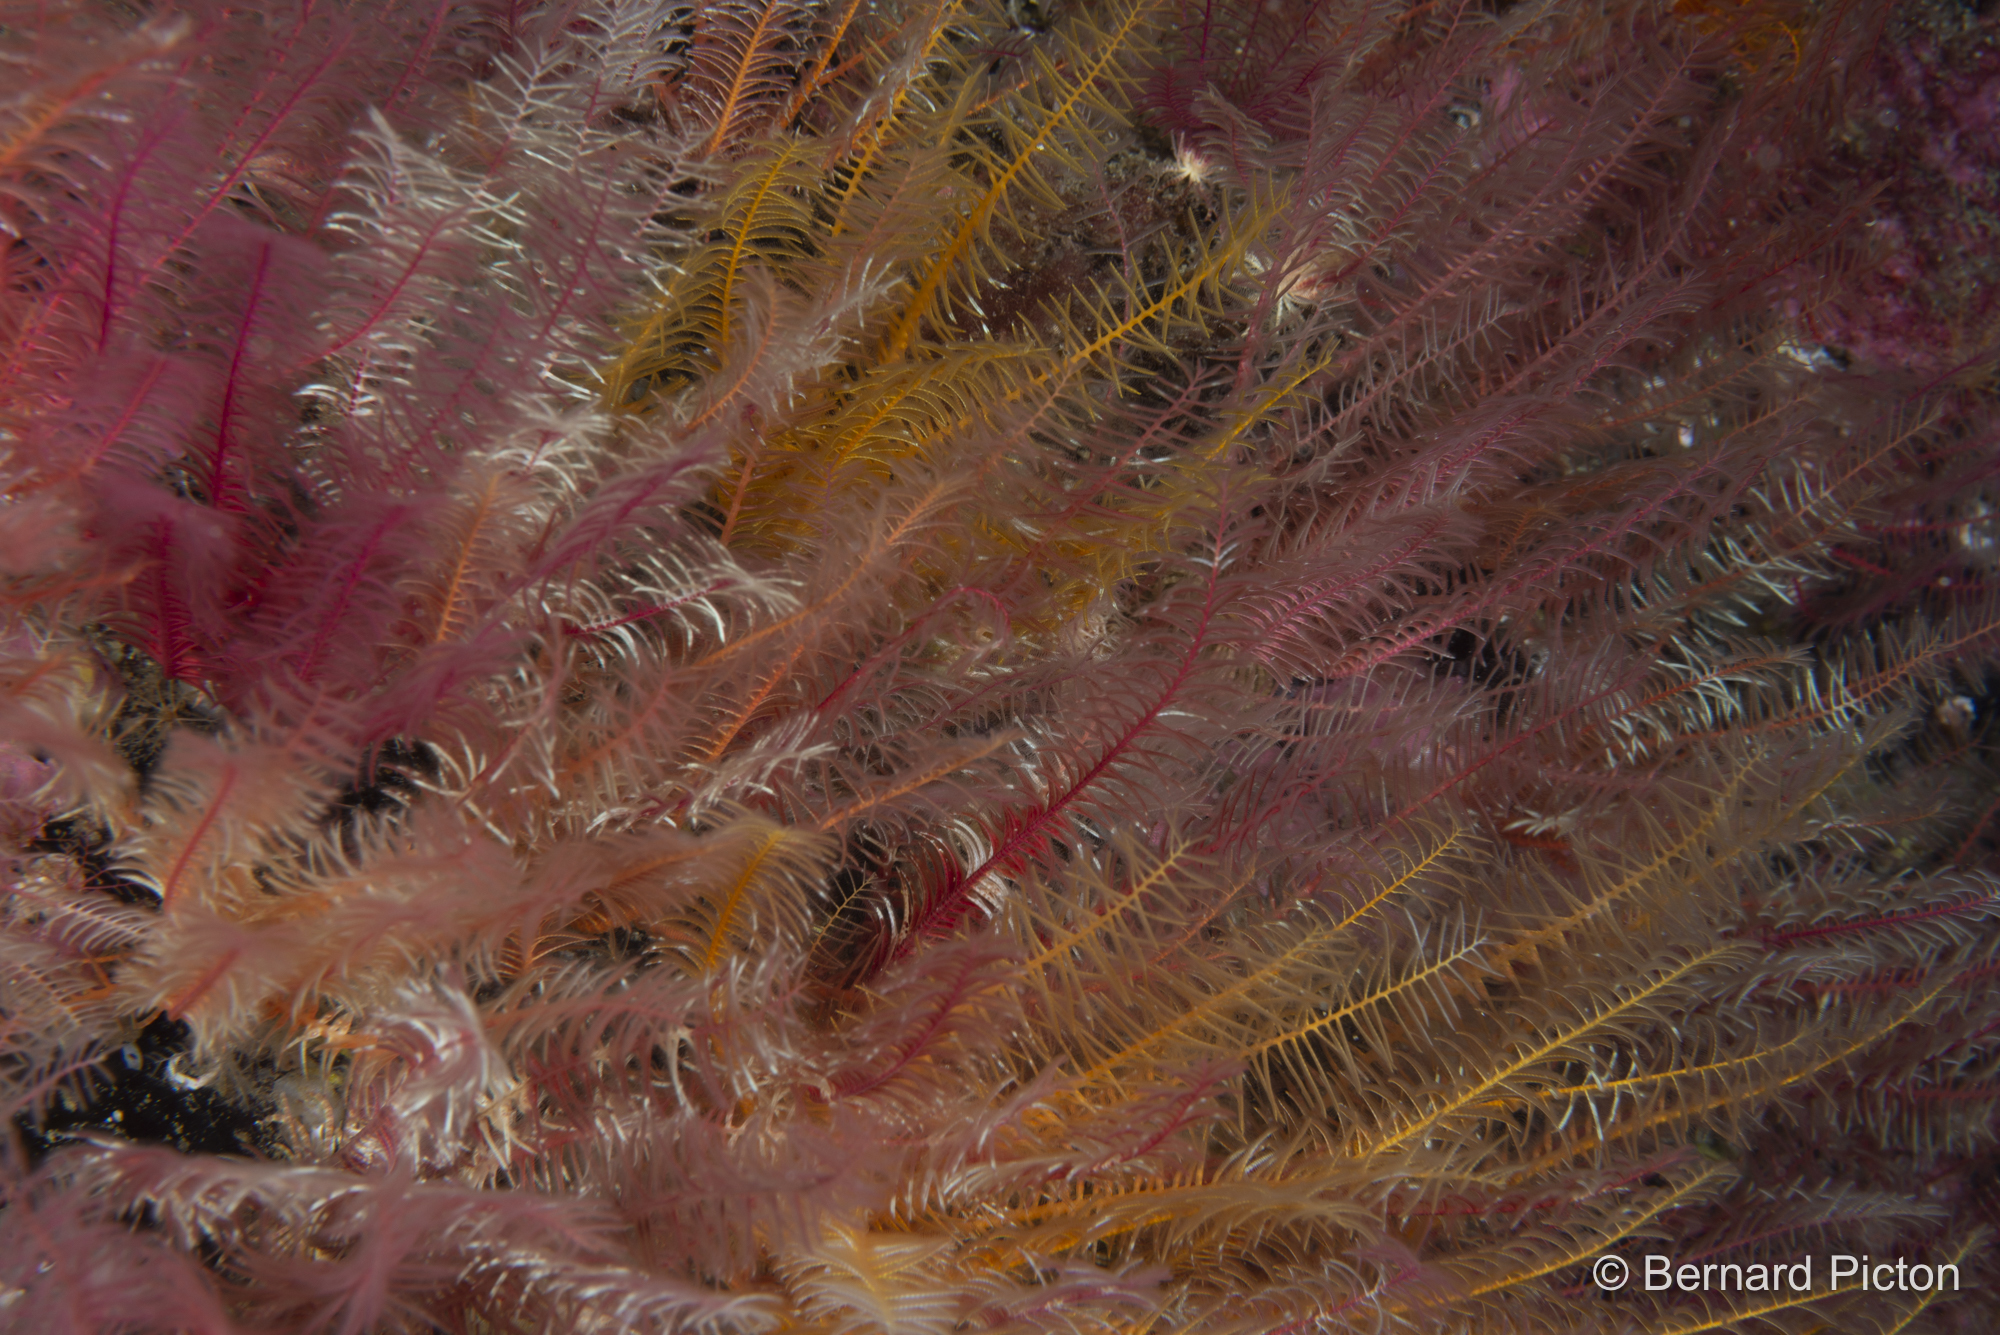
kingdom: Animalia
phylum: Echinodermata
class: Crinoidea
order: Comatulida
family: Antedonidae
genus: Antedon
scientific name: Antedon bifida
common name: Rosy feather-star
